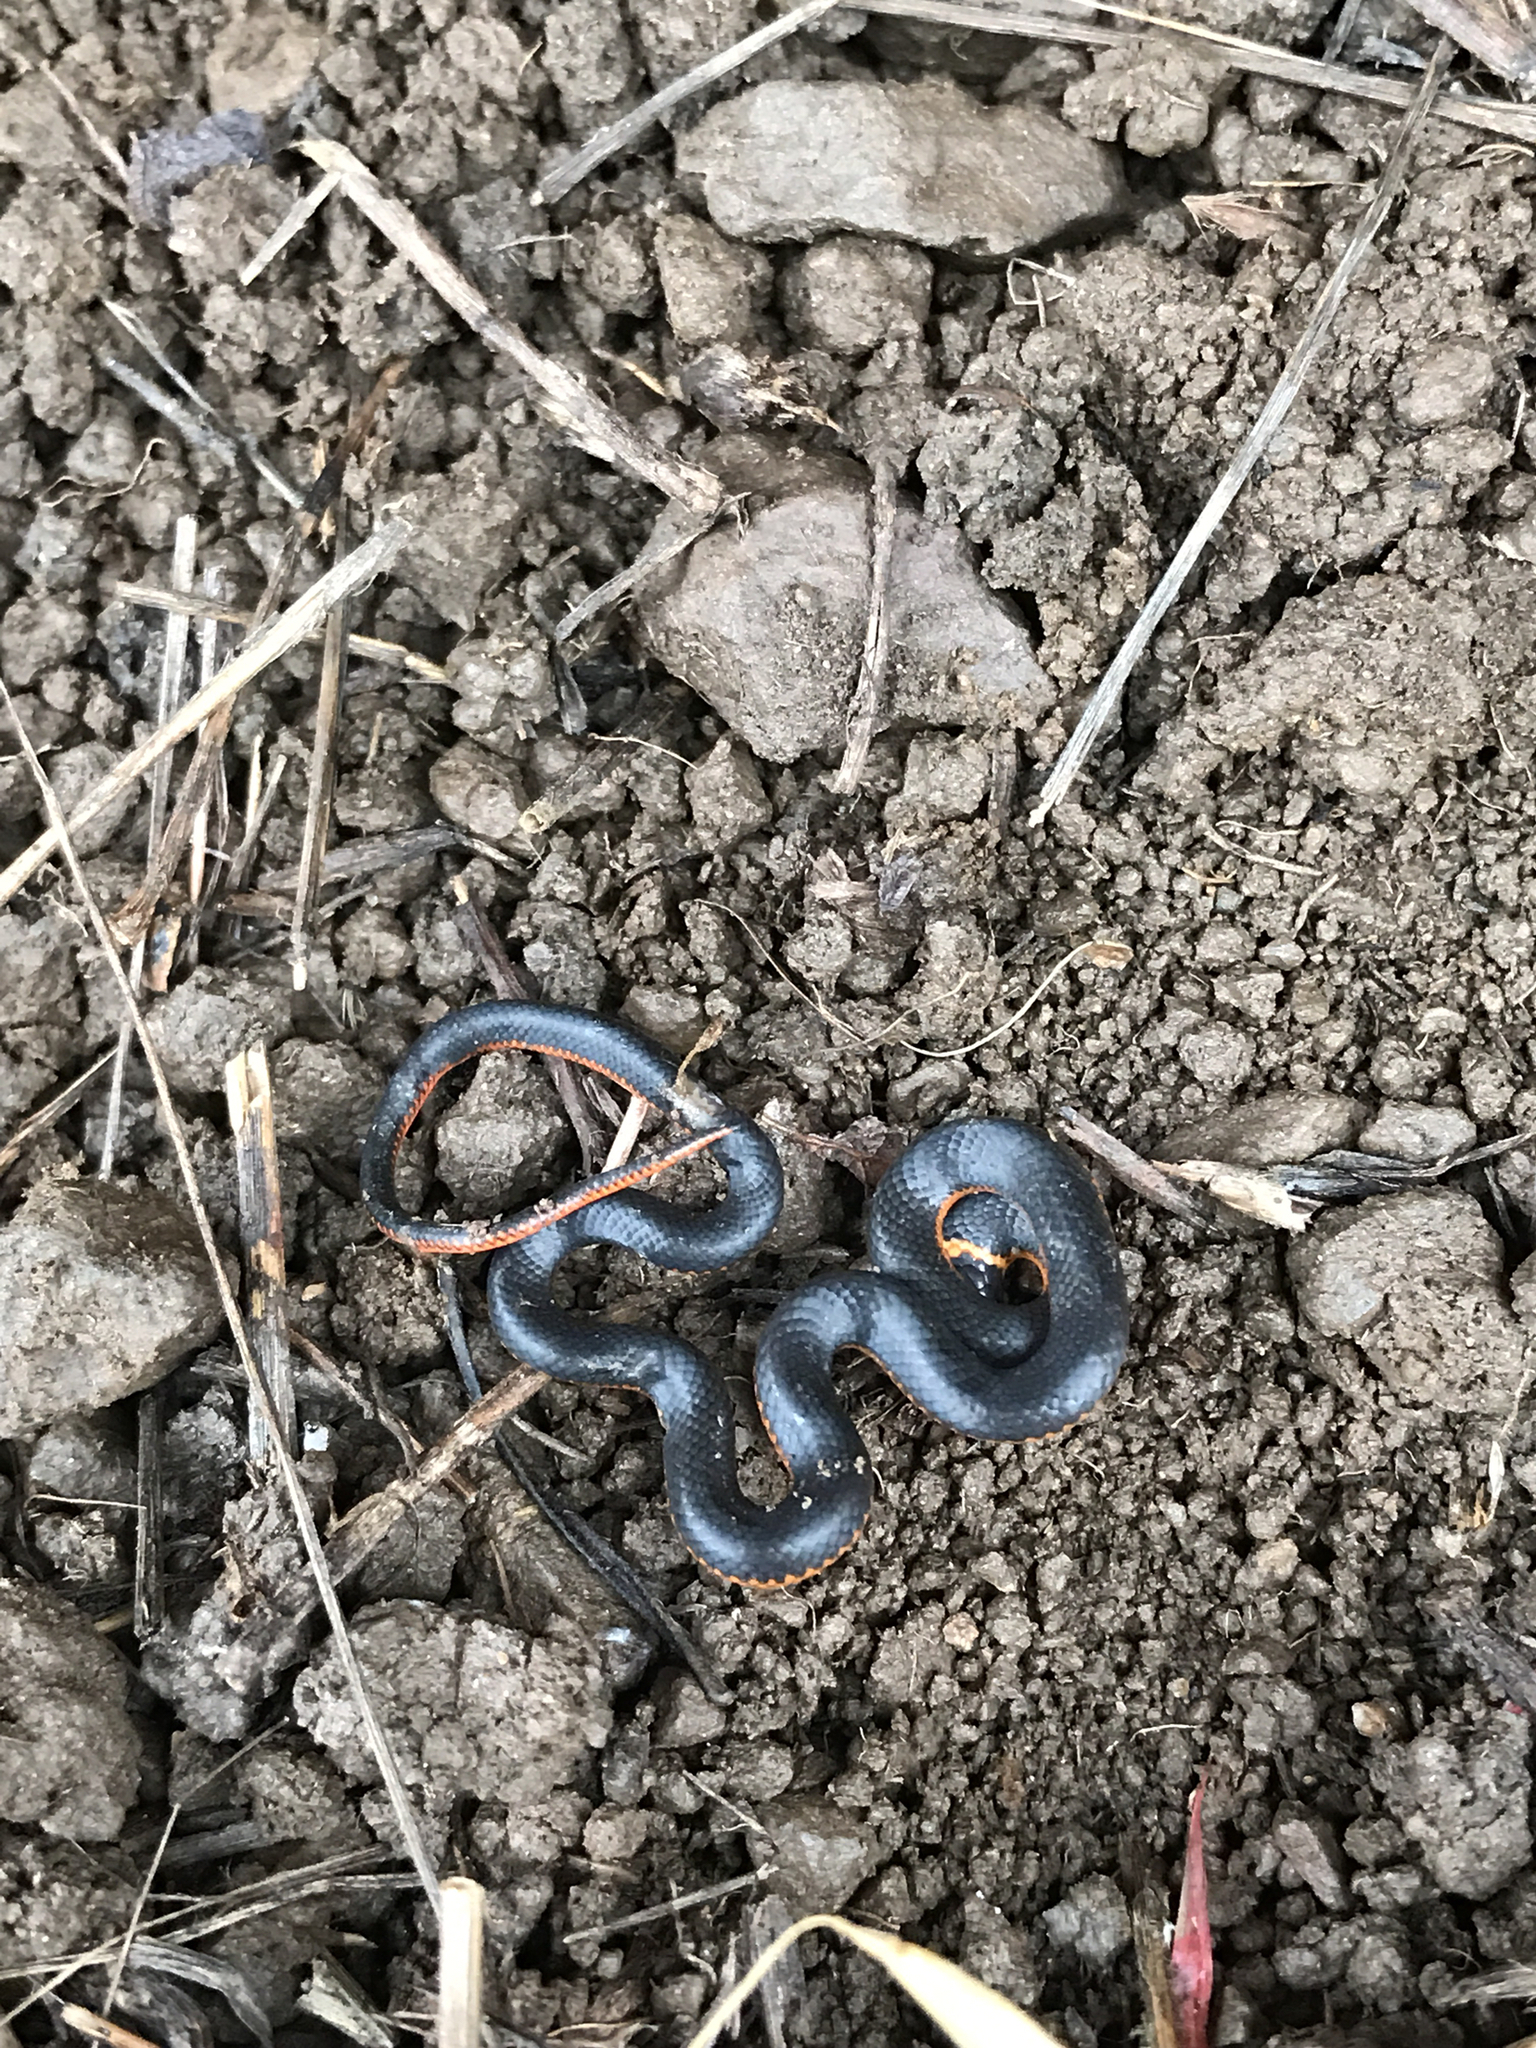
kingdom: Animalia
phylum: Chordata
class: Squamata
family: Colubridae
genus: Diadophis
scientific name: Diadophis punctatus
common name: Ringneck snake
